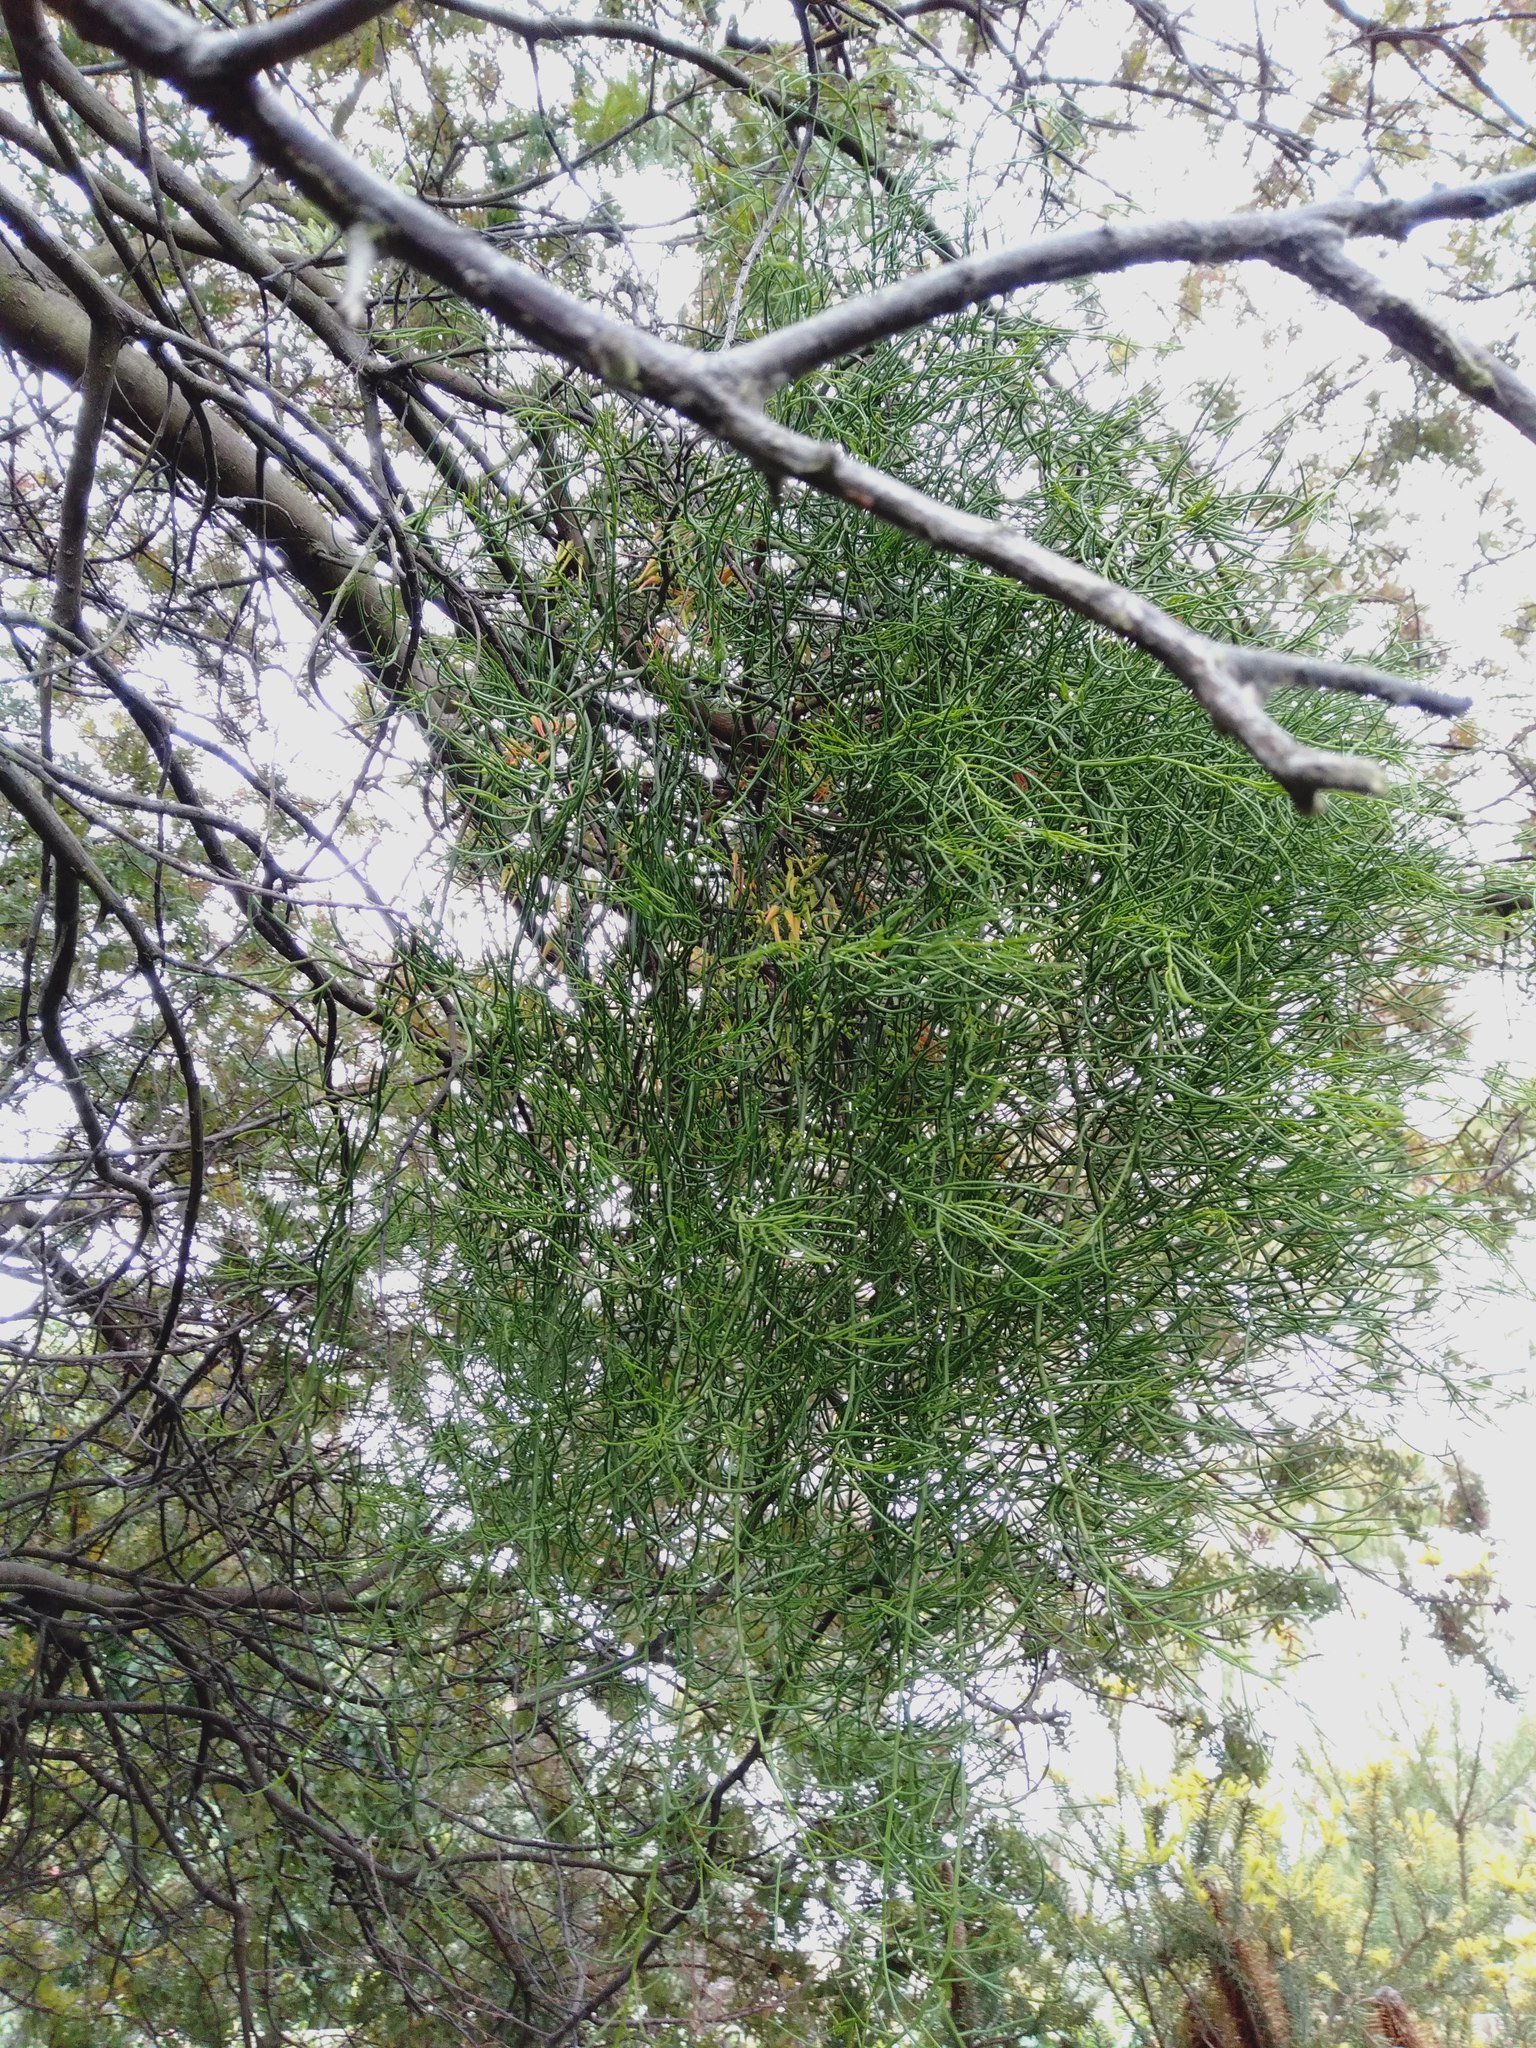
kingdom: Plantae
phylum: Tracheophyta
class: Magnoliopsida
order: Santalales
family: Loranthaceae
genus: Amyema
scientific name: Amyema preissii
